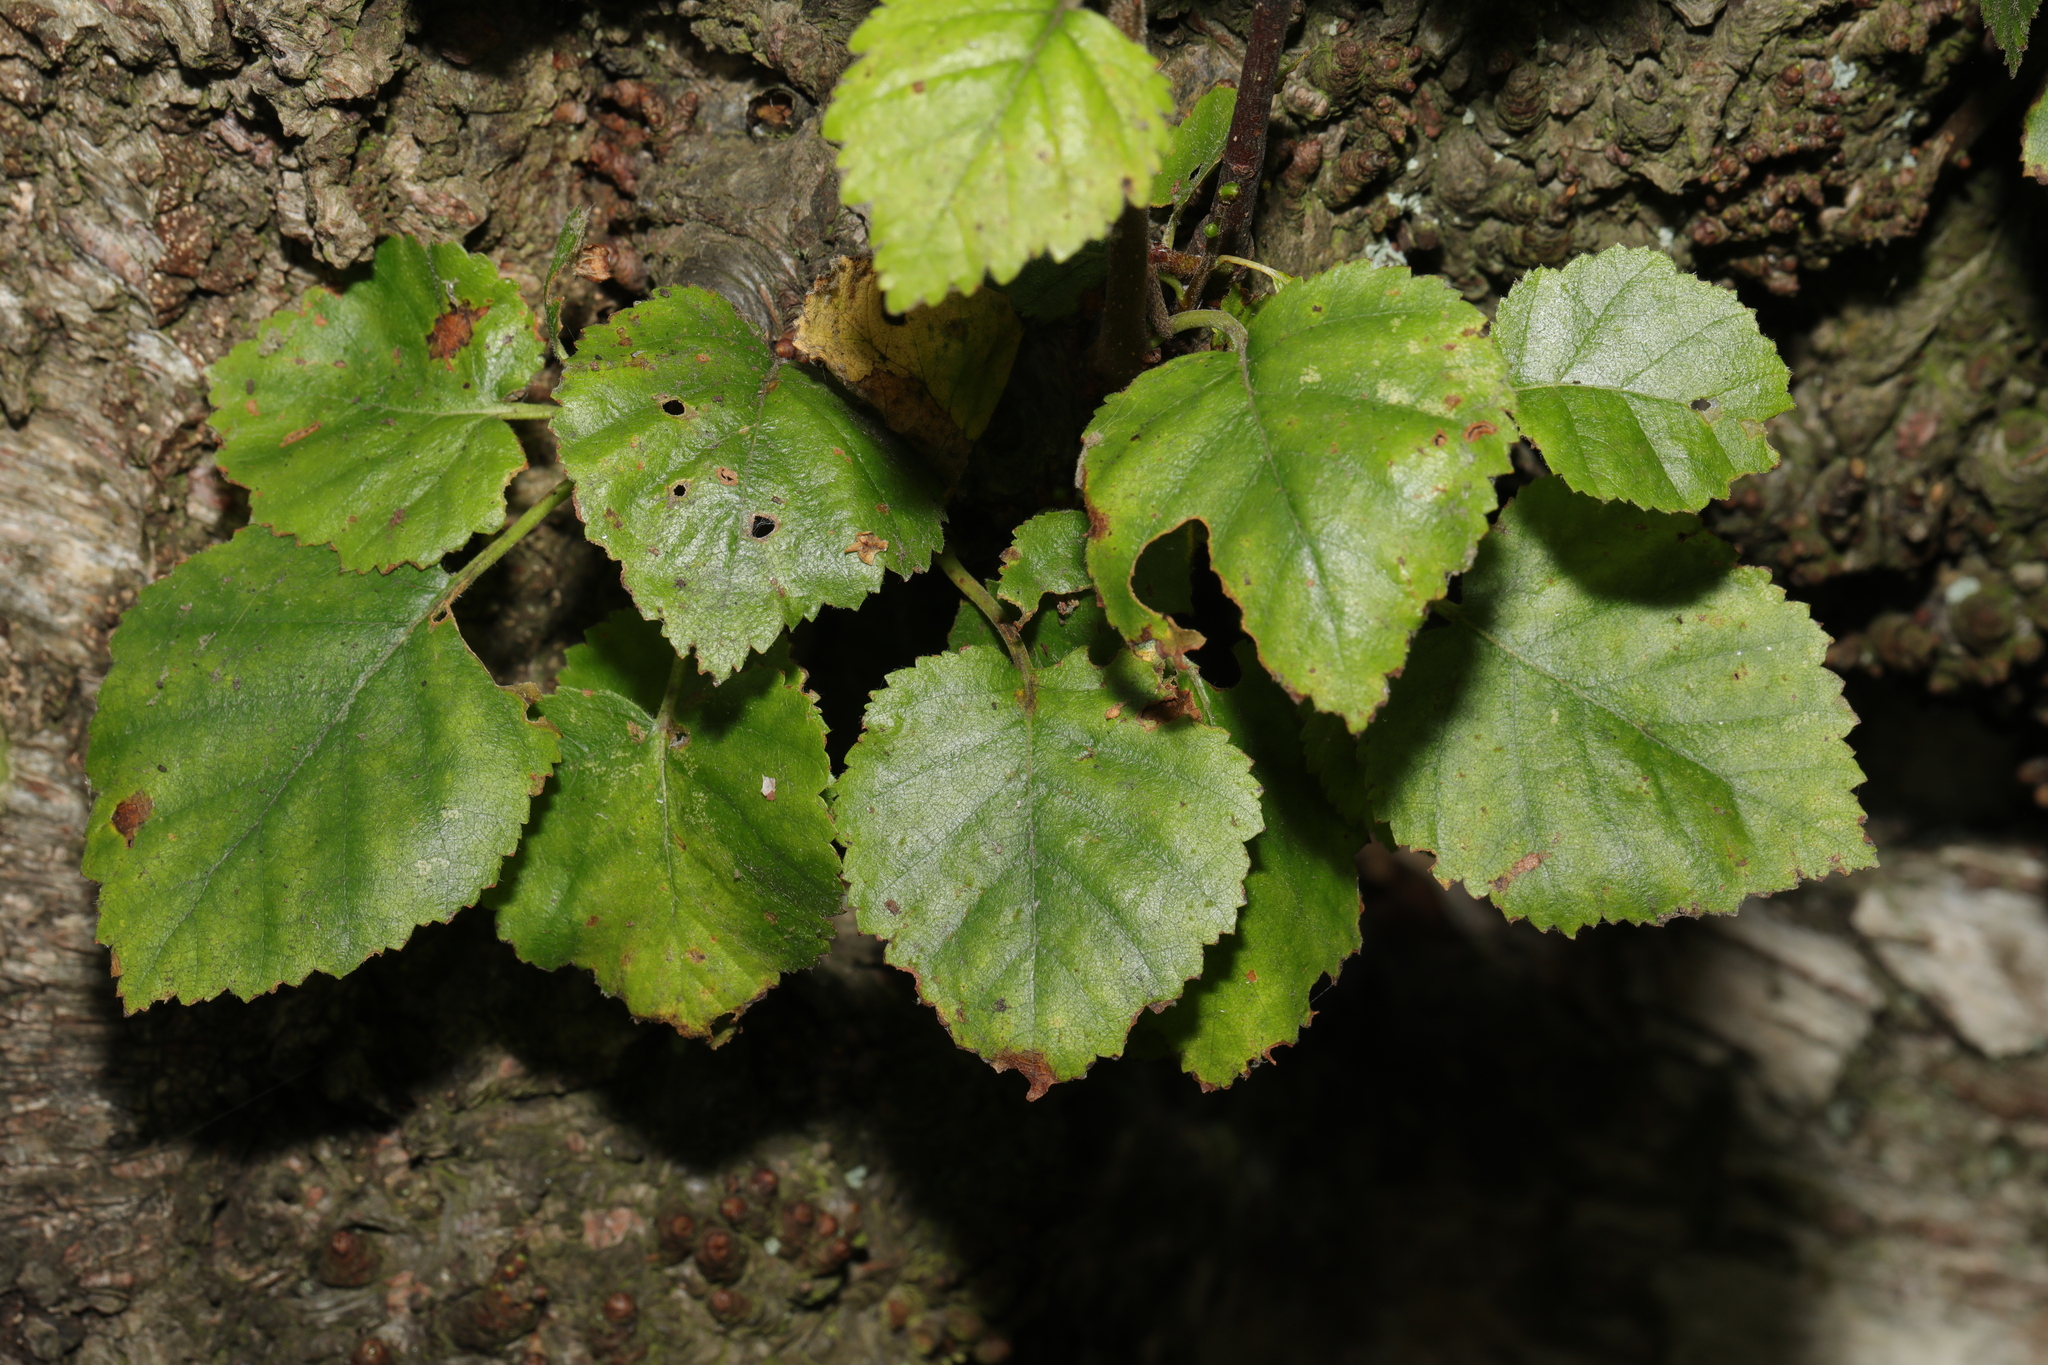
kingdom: Plantae
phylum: Tracheophyta
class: Magnoliopsida
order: Fagales
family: Betulaceae
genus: Betula
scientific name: Betula pubescens
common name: Downy birch
